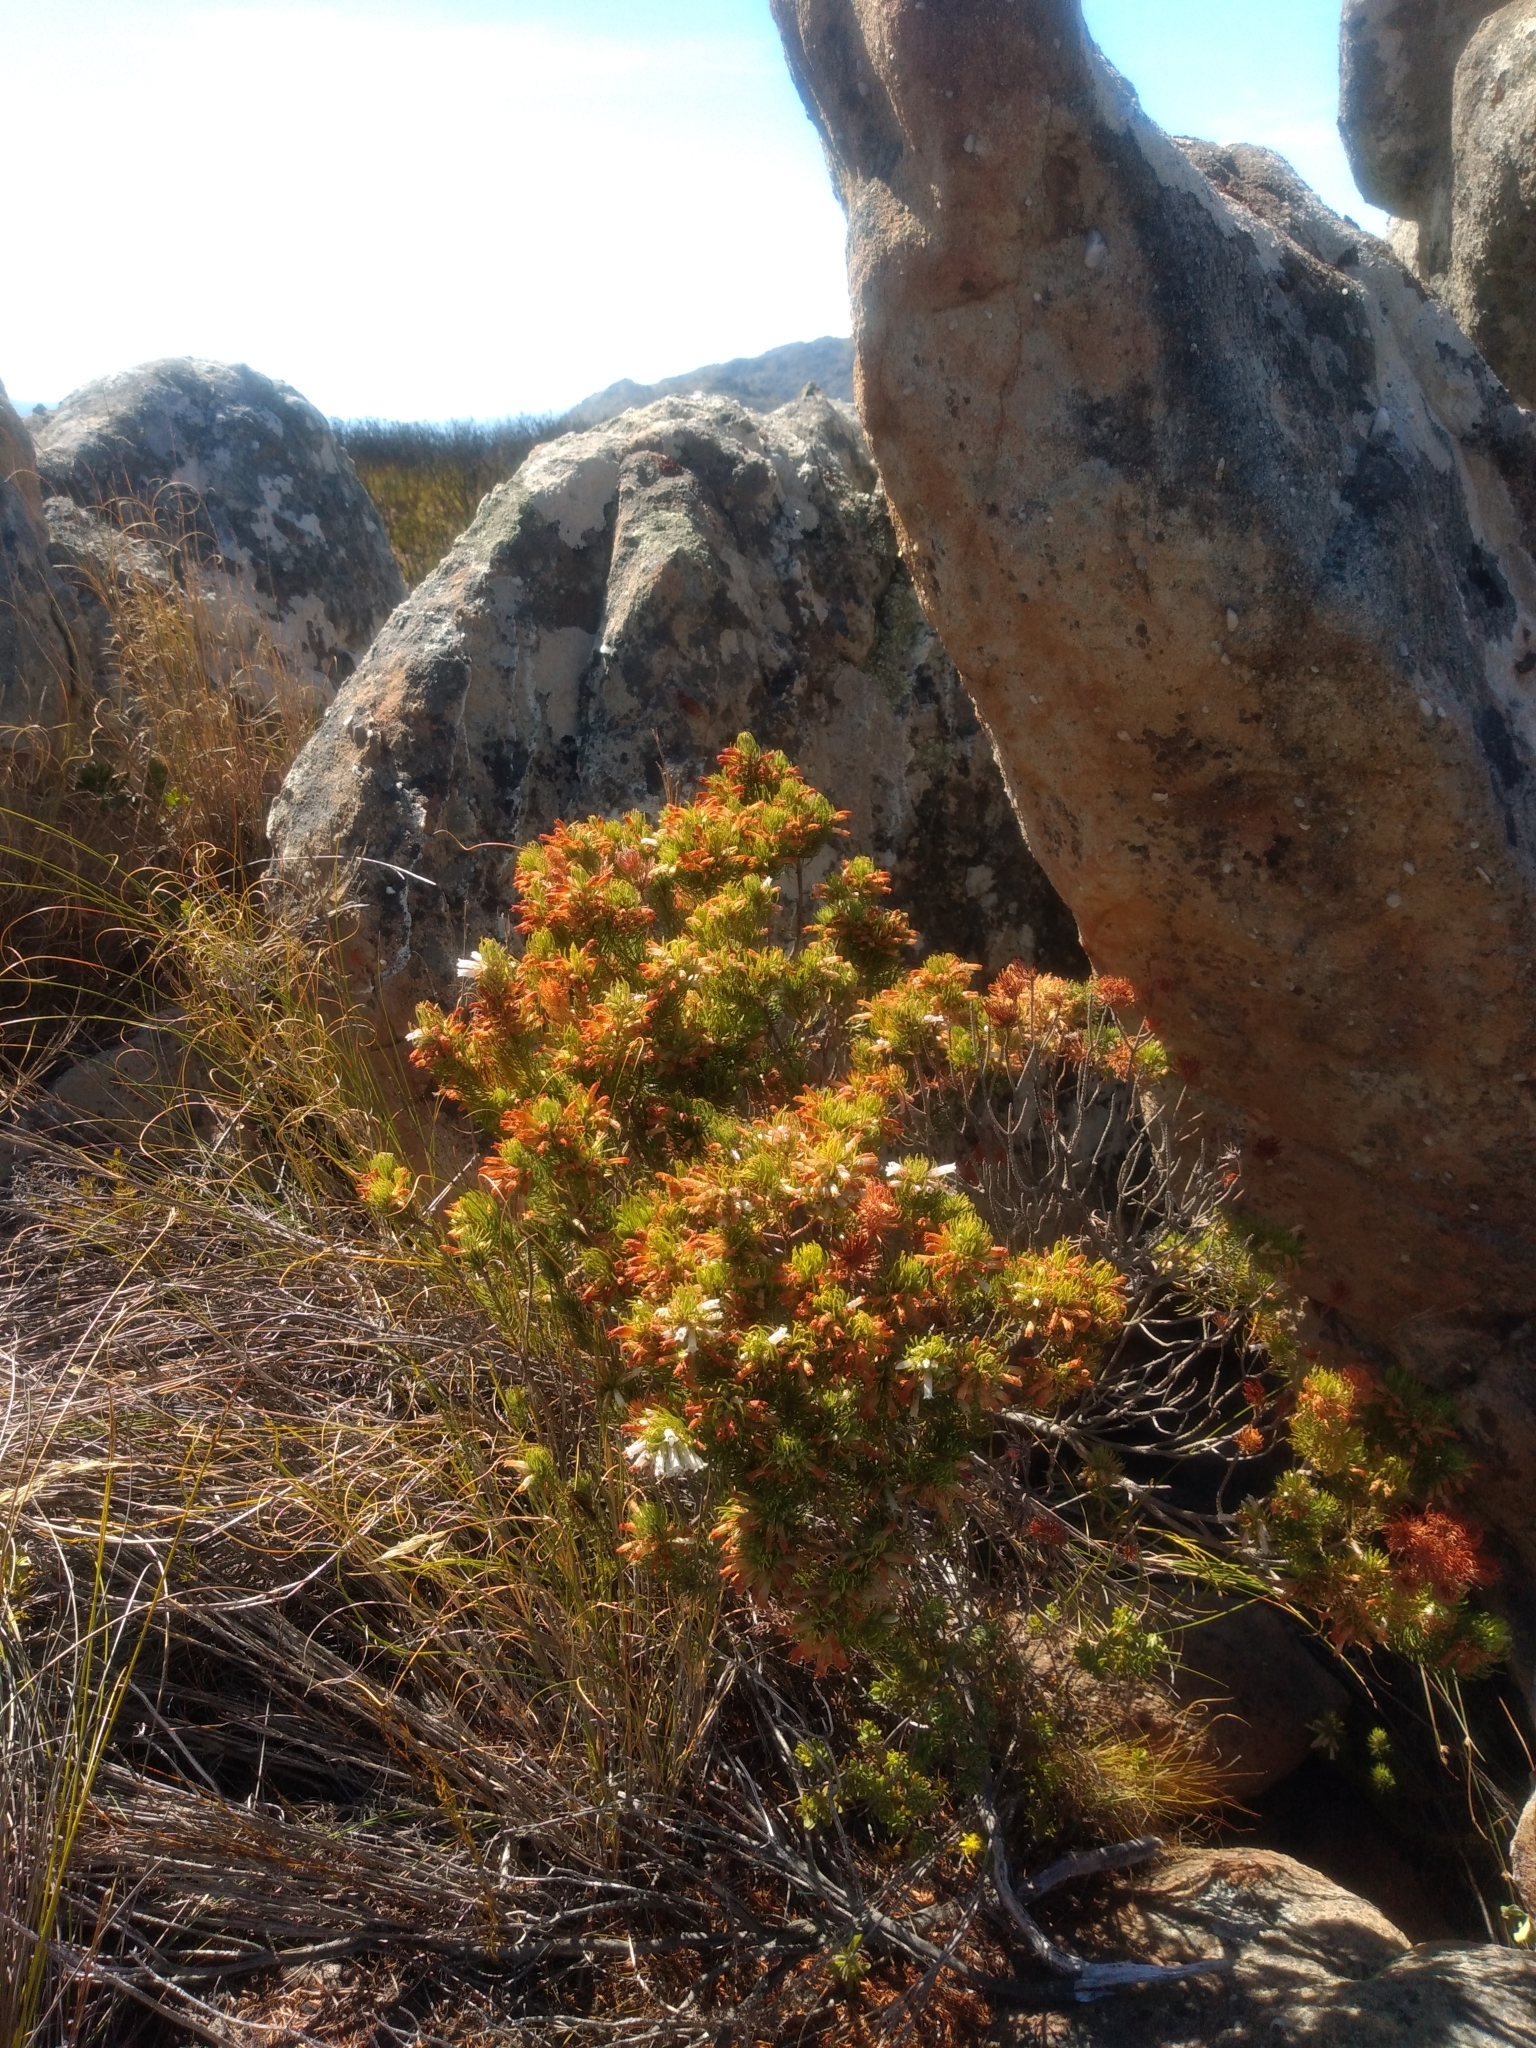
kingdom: Plantae
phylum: Tracheophyta
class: Magnoliopsida
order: Ericales
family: Ericaceae
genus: Erica
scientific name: Erica viscaria
